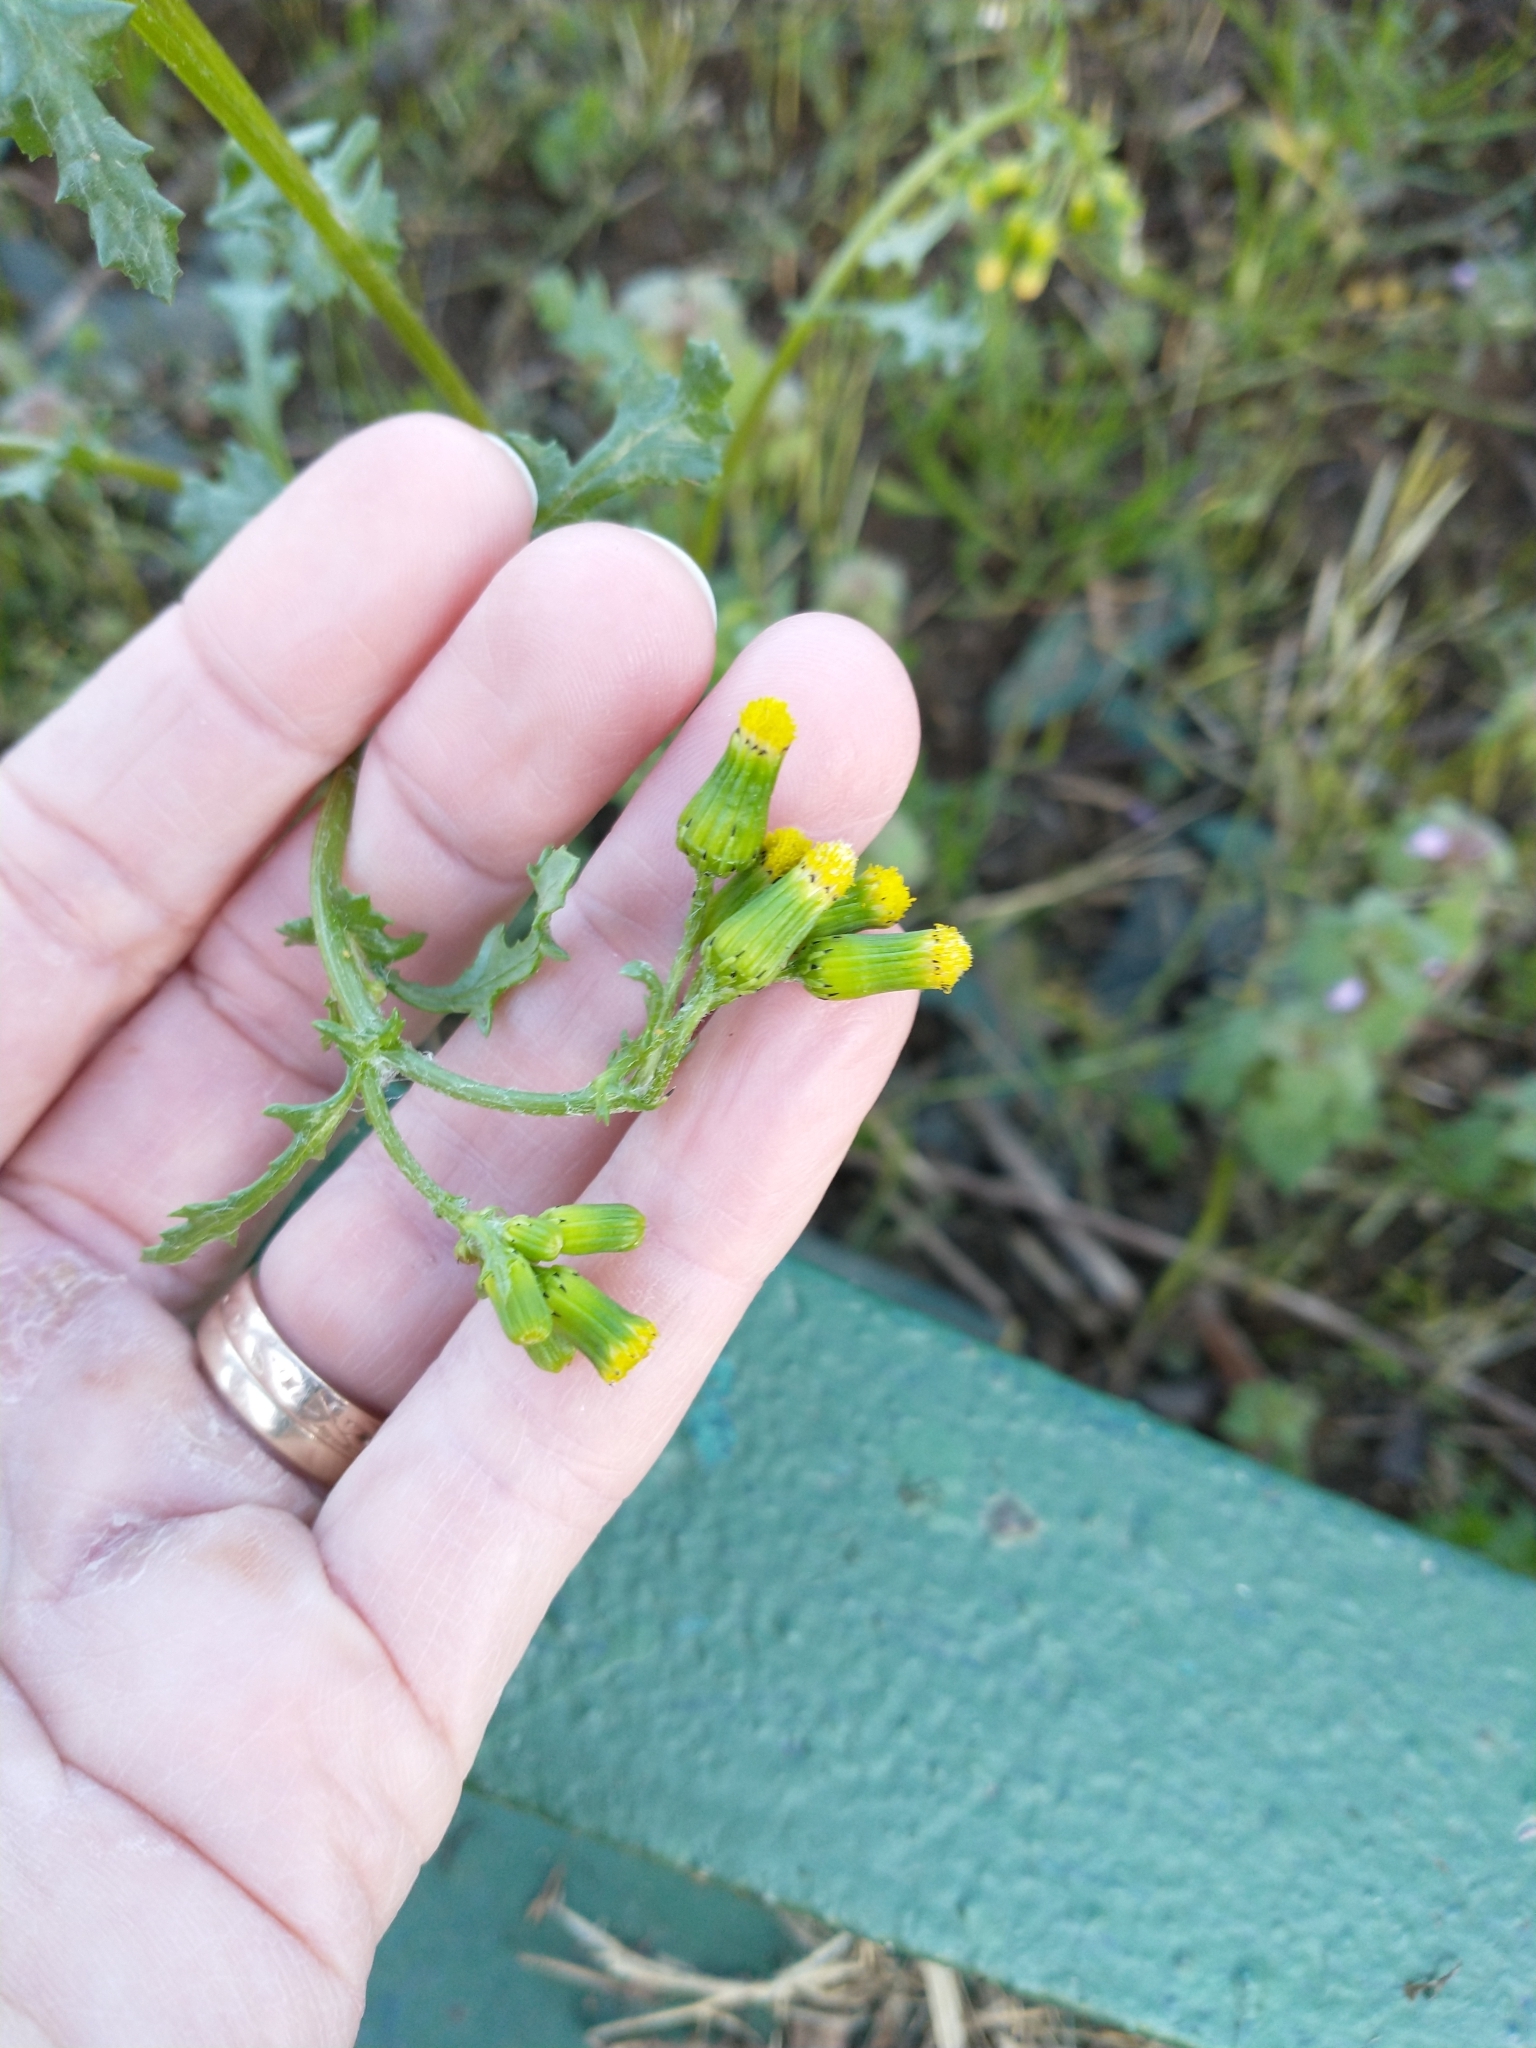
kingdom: Plantae
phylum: Tracheophyta
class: Magnoliopsida
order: Asterales
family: Asteraceae
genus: Senecio
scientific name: Senecio vulgaris
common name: Old-man-in-the-spring
